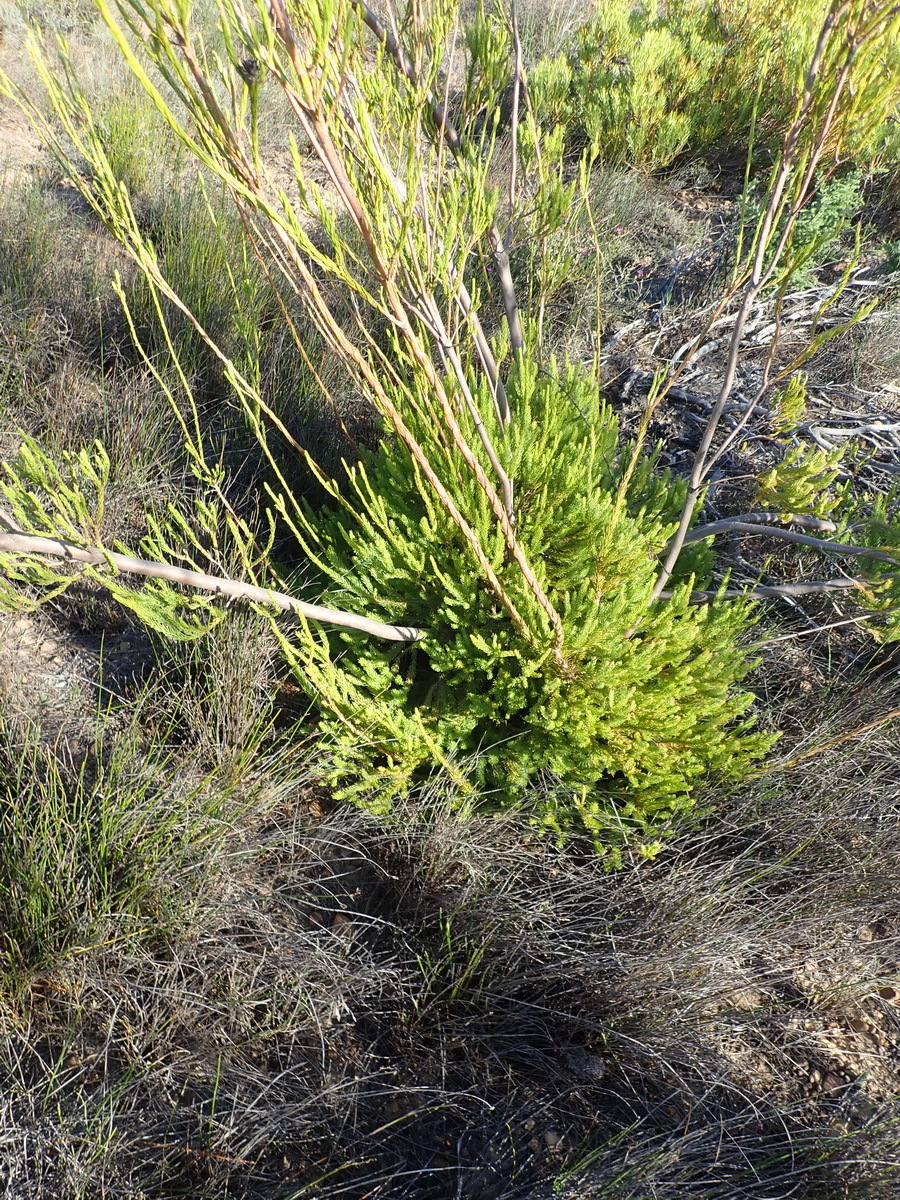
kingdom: Plantae
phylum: Tracheophyta
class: Magnoliopsida
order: Proteales
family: Proteaceae
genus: Leucadendron
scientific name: Leucadendron corymbosum
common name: Swartveld conebush
